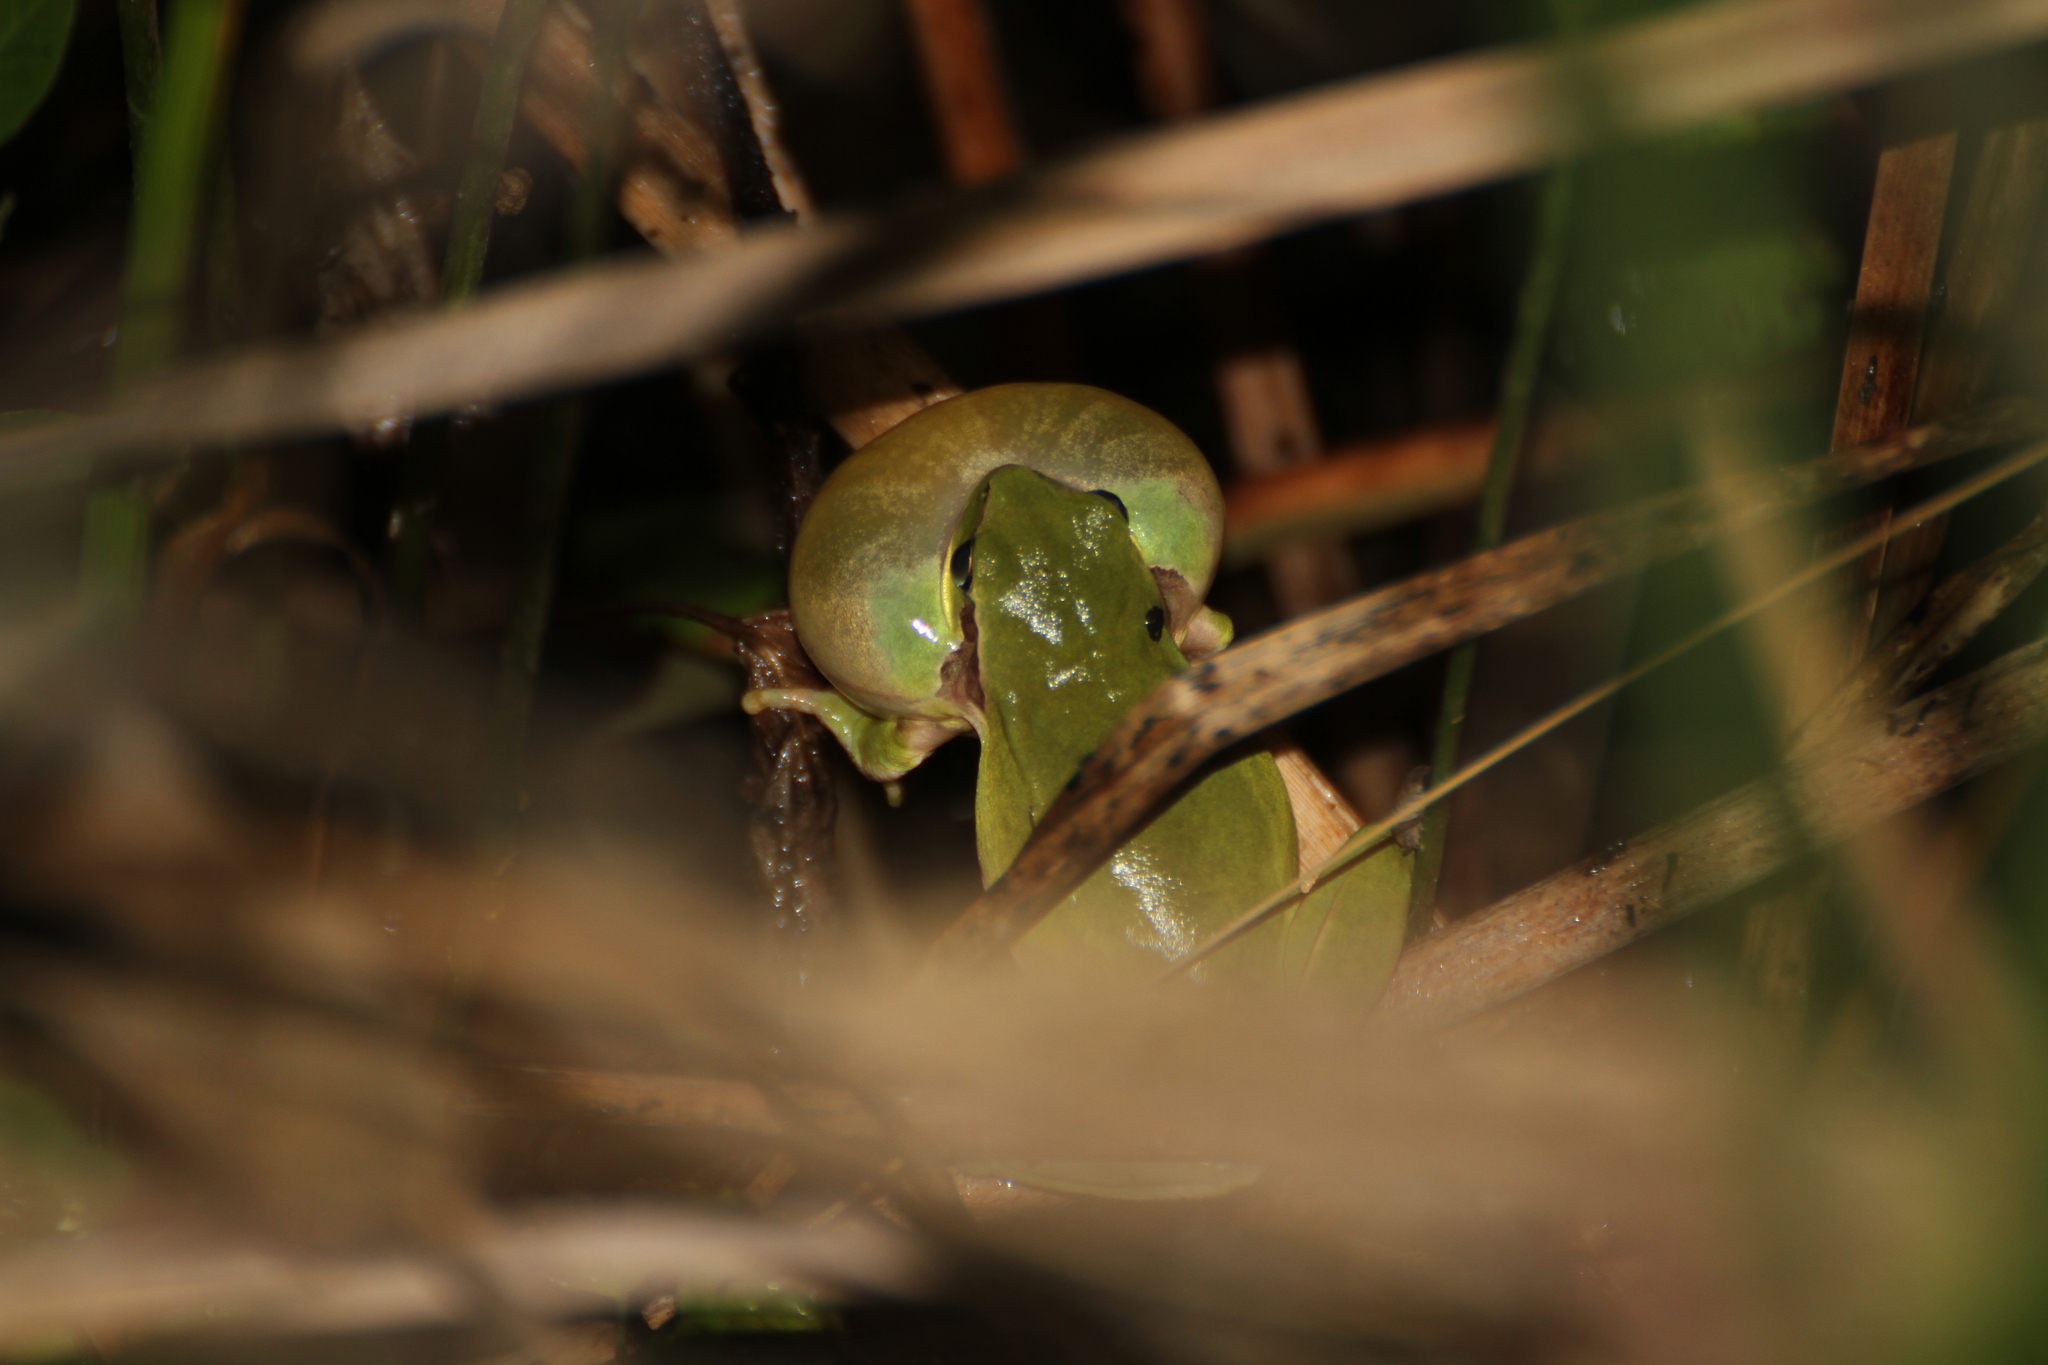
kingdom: Animalia
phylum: Chordata
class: Amphibia
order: Anura
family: Hylidae
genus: Hyla
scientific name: Hyla meridionalis
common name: Stripeless tree frog
